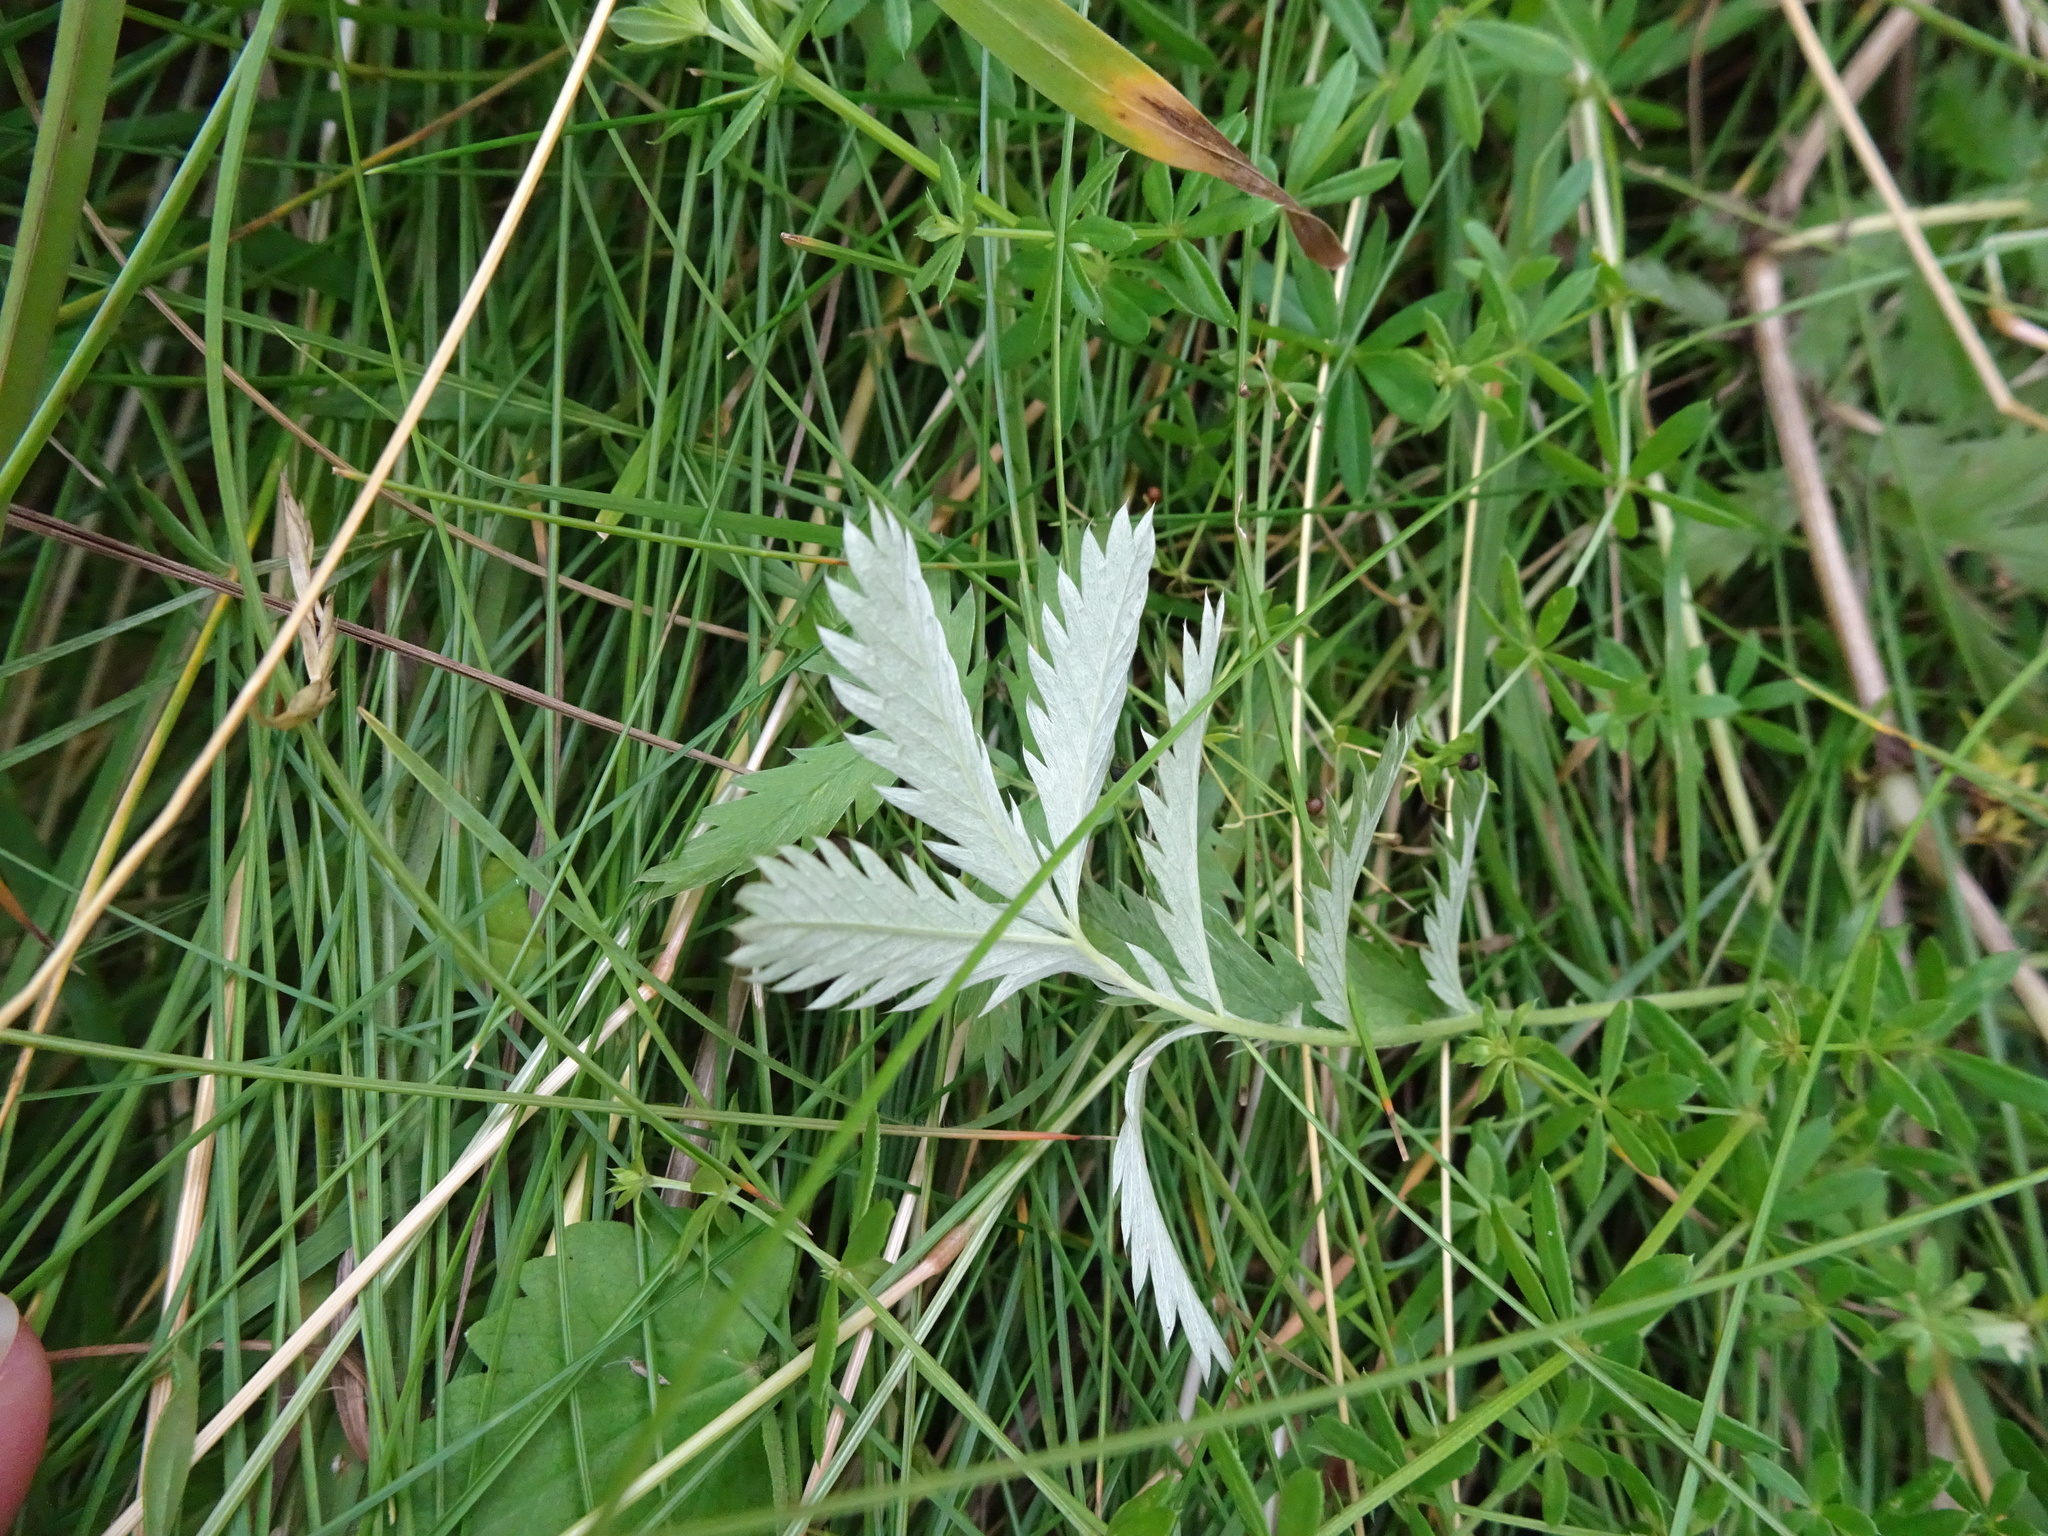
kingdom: Plantae
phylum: Tracheophyta
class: Magnoliopsida
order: Rosales
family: Rosaceae
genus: Argentina
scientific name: Argentina anserina
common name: Common silverweed
